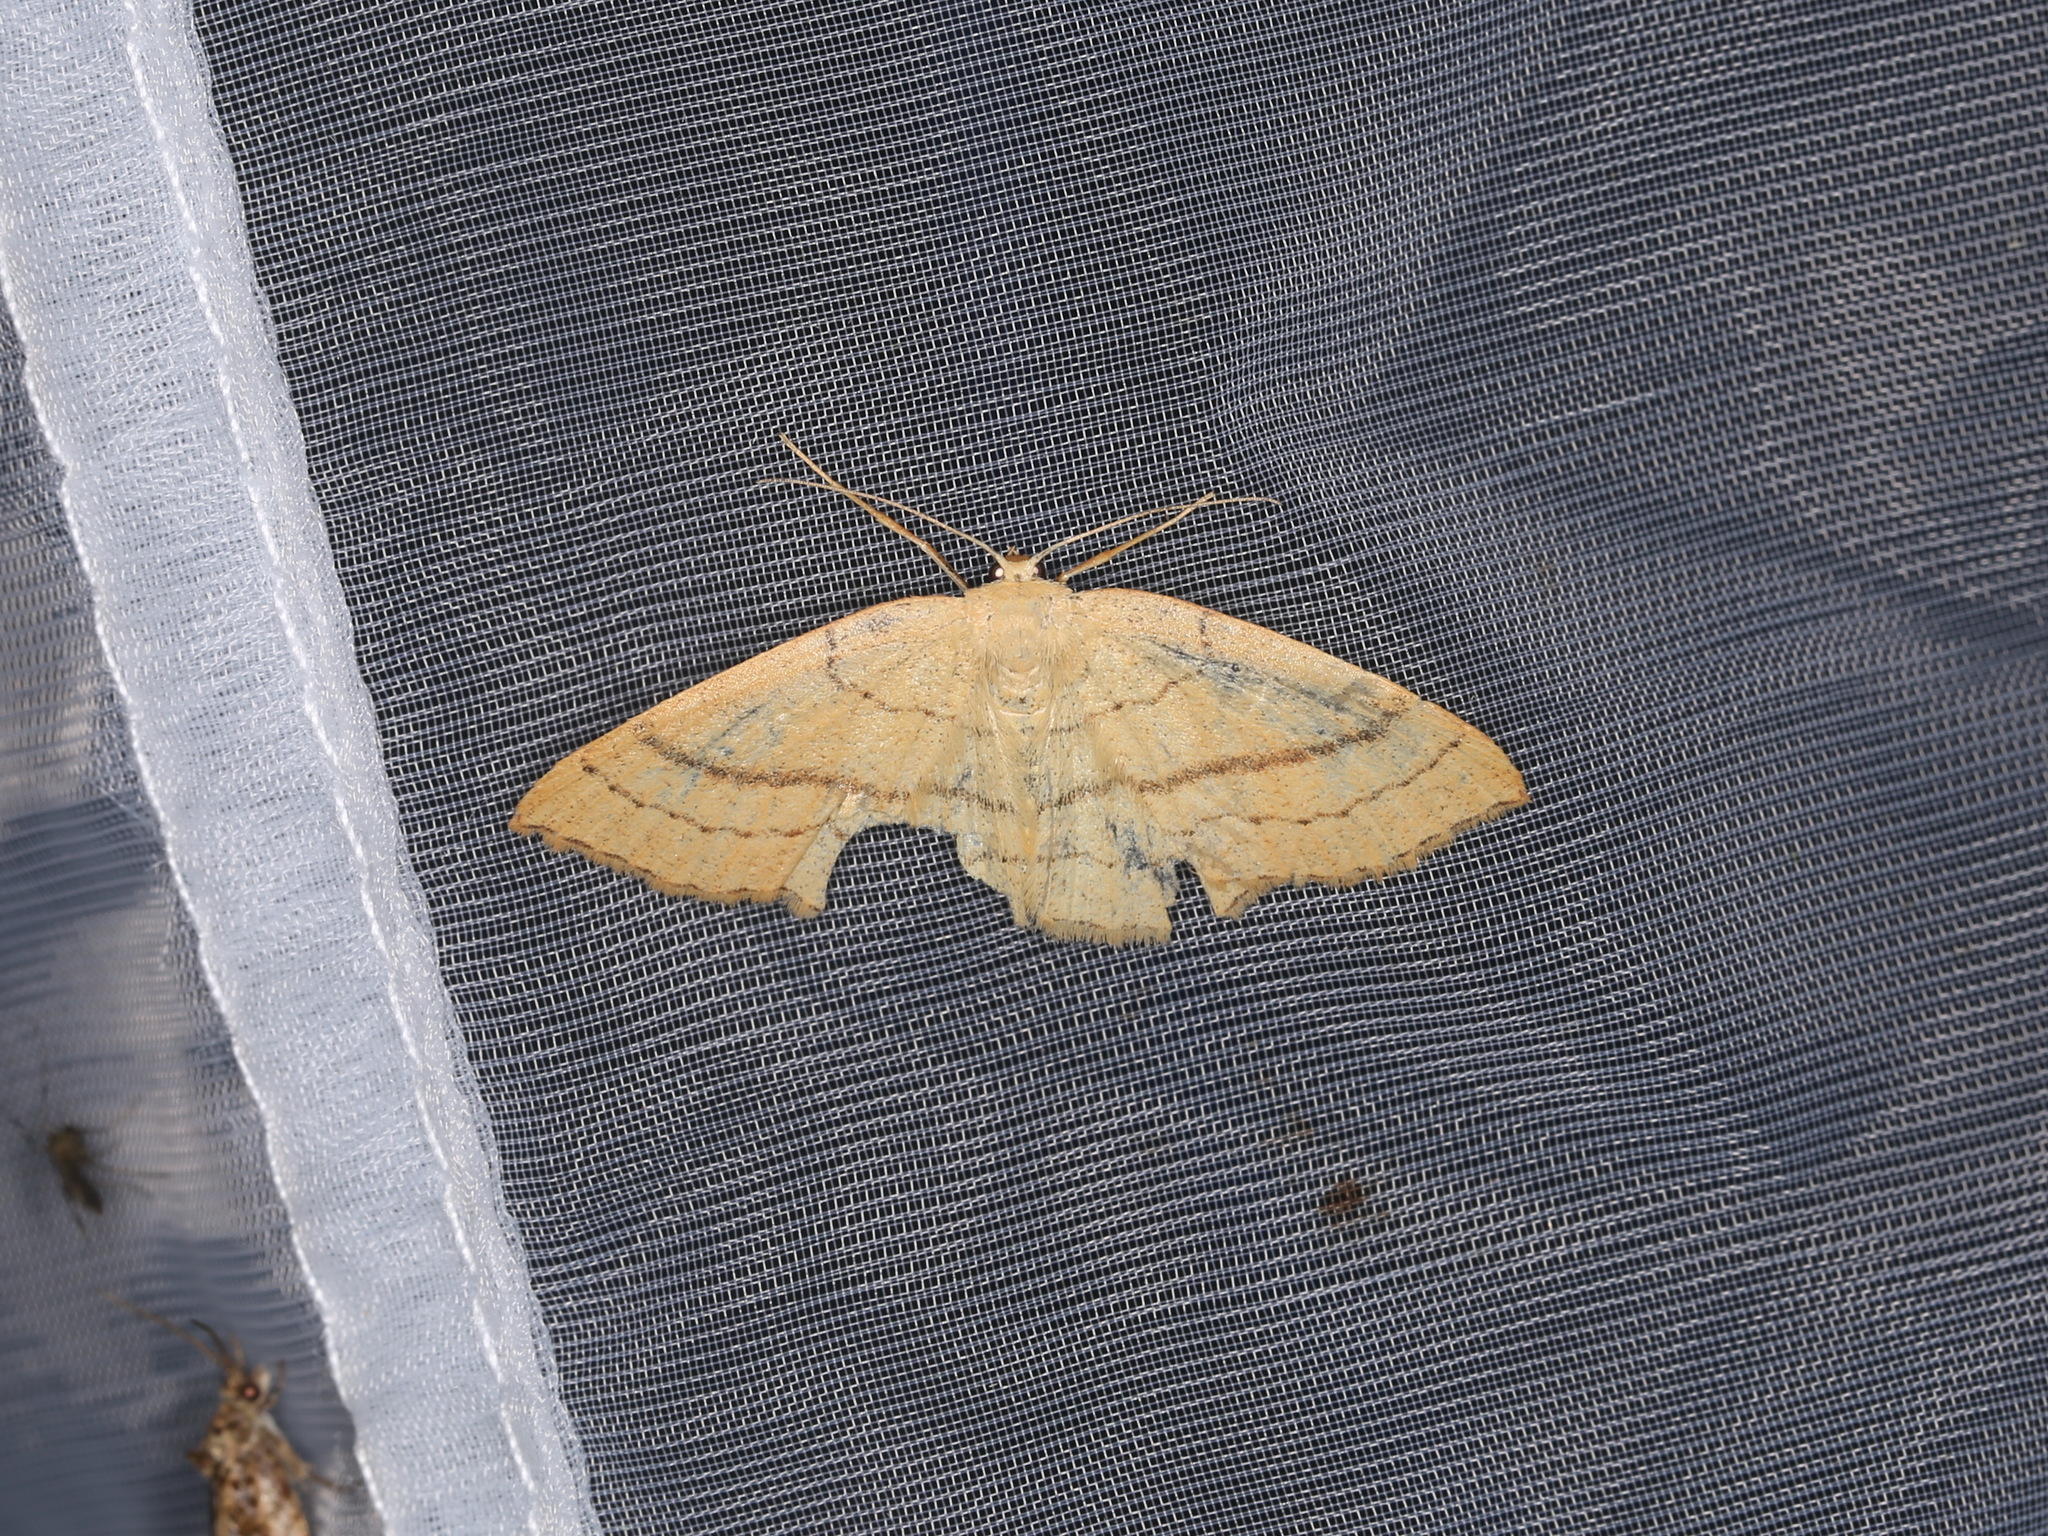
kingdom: Animalia
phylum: Arthropoda
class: Insecta
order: Lepidoptera
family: Geometridae
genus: Cyclophora
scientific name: Cyclophora linearia
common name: Clay triple-lines
